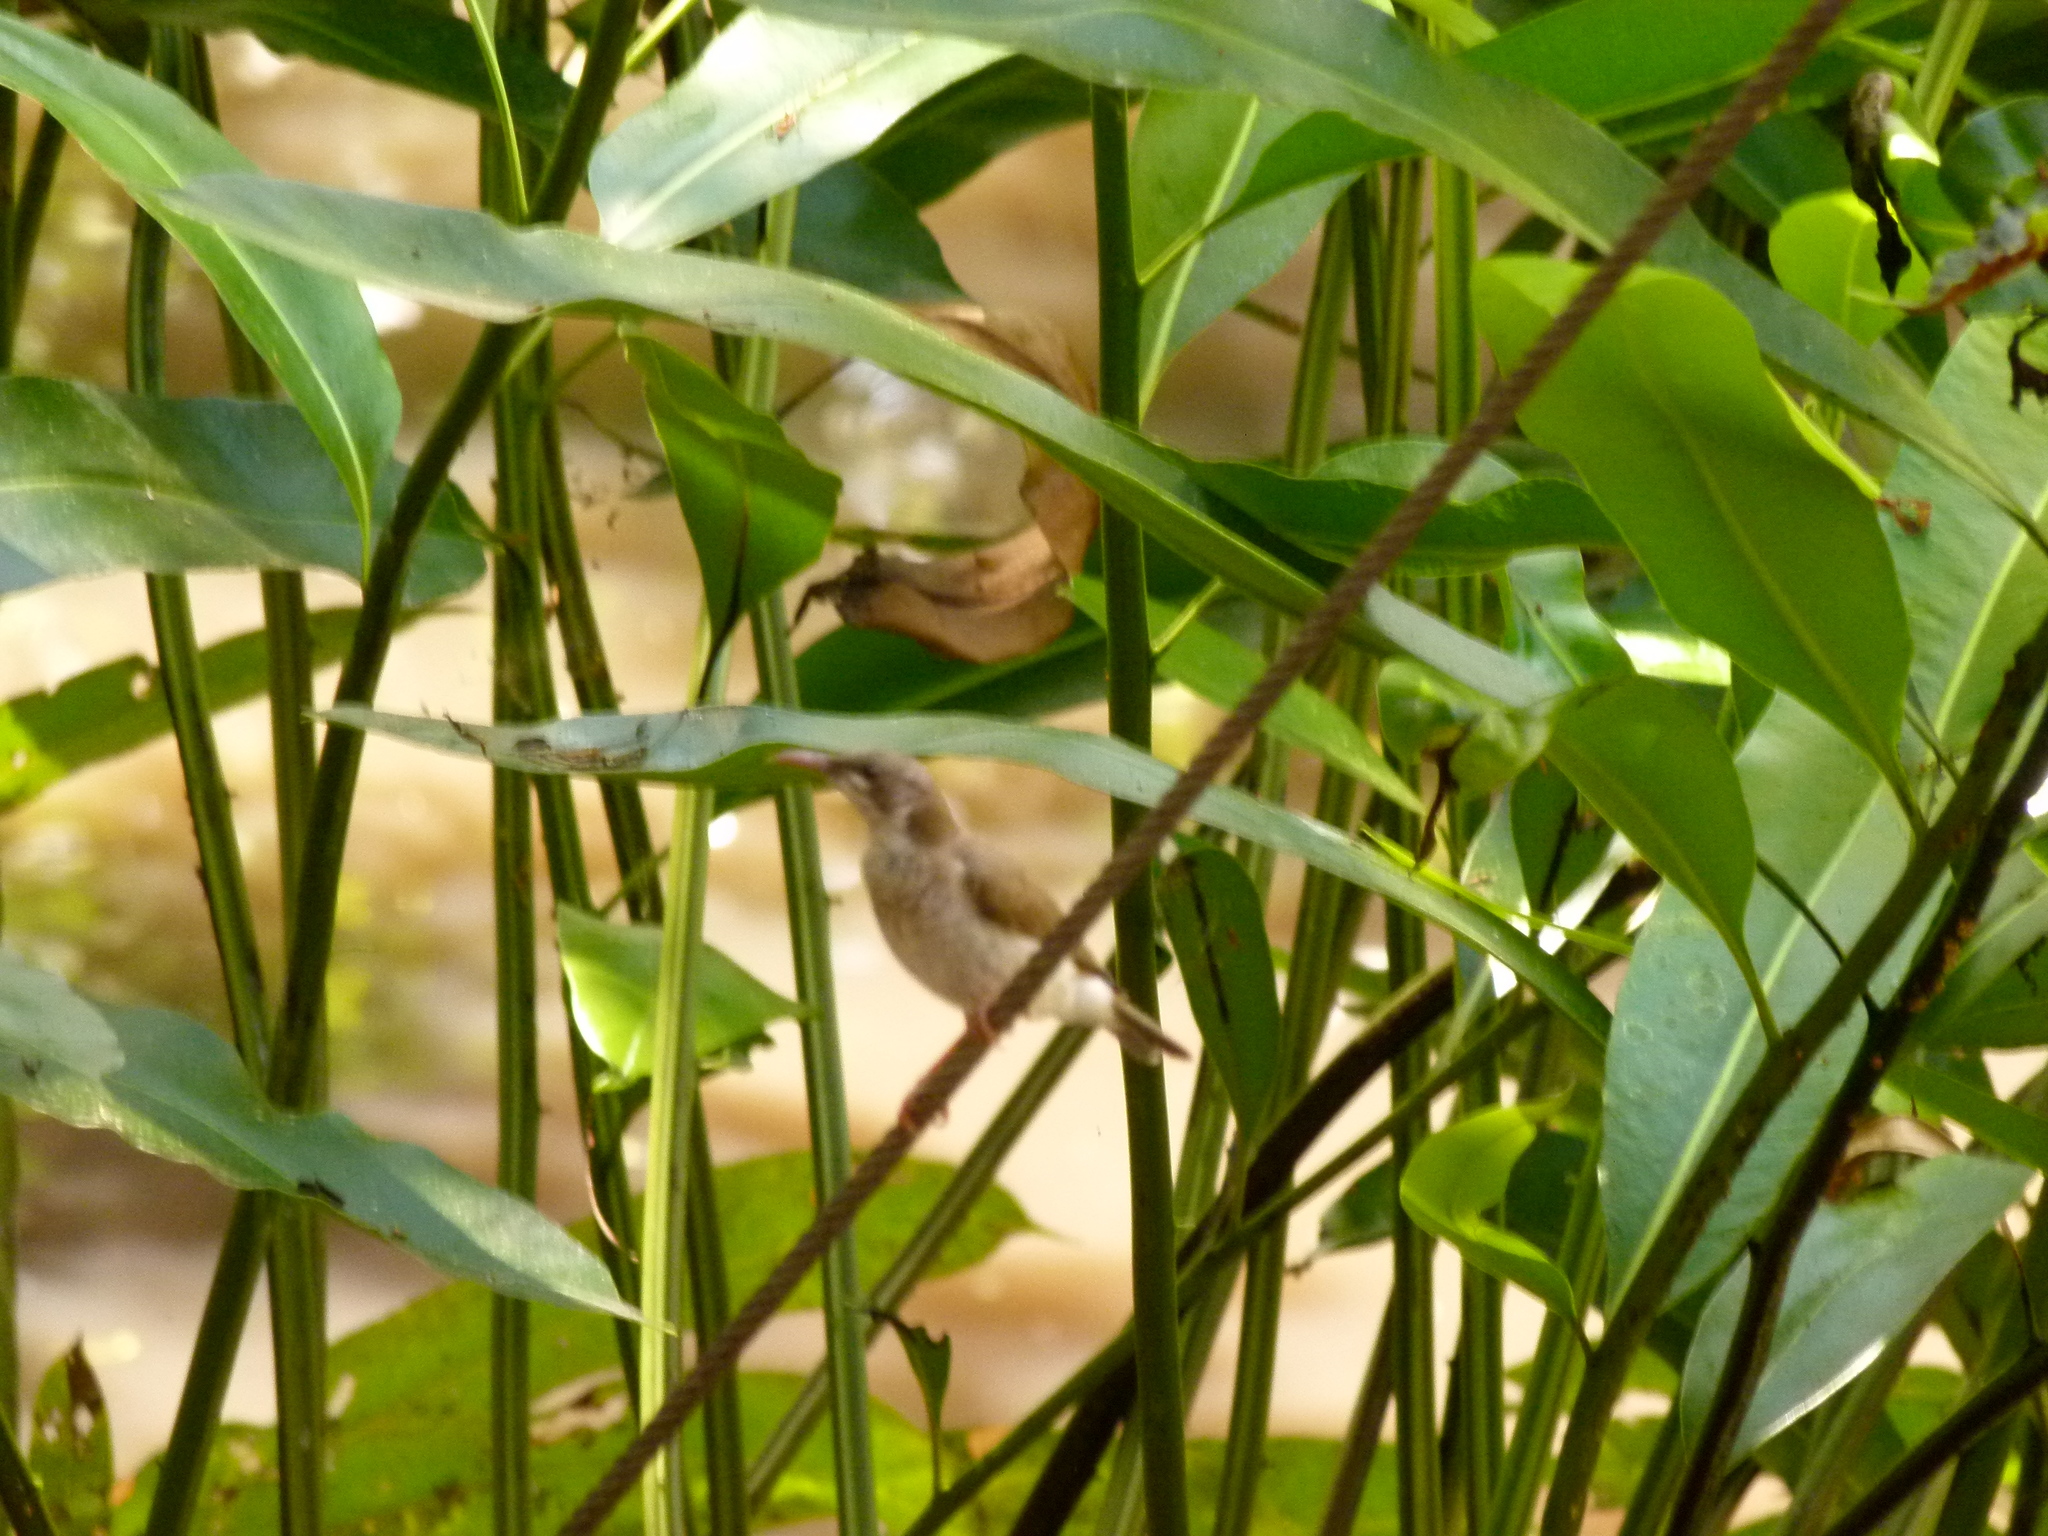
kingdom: Animalia
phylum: Chordata
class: Aves
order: Passeriformes
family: Meliphagidae
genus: Ramsayornis
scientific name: Ramsayornis modestus
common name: Brown-backed honeyeater
